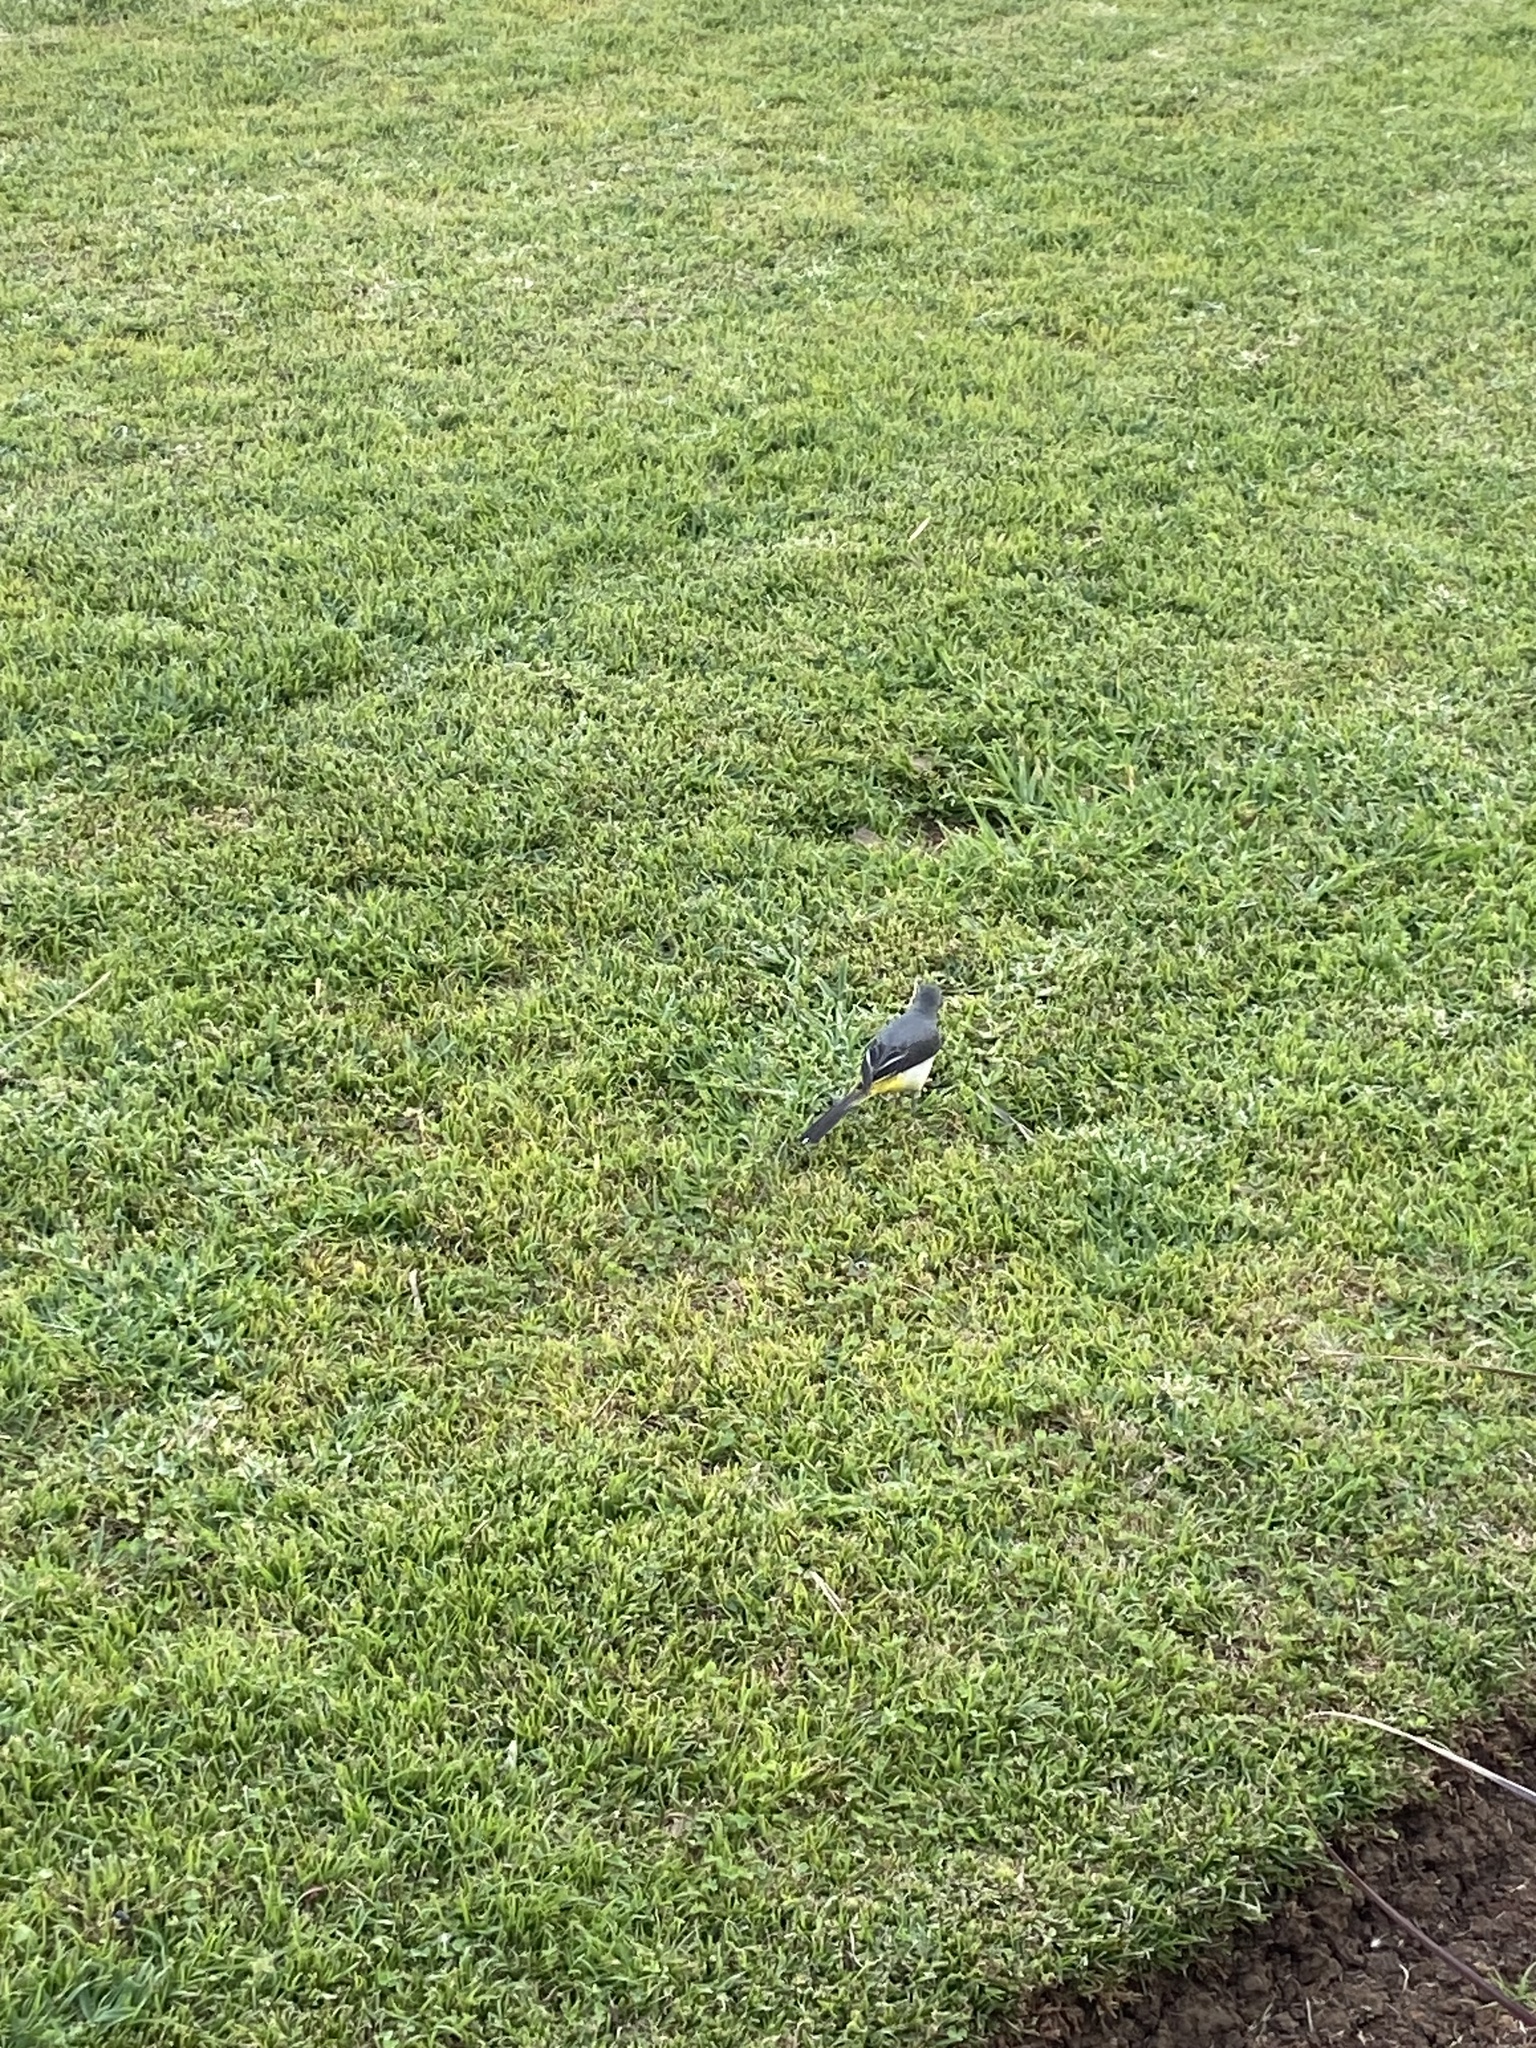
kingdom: Animalia
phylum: Chordata
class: Aves
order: Passeriformes
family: Motacillidae
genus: Motacilla
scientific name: Motacilla cinerea
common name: Grey wagtail
